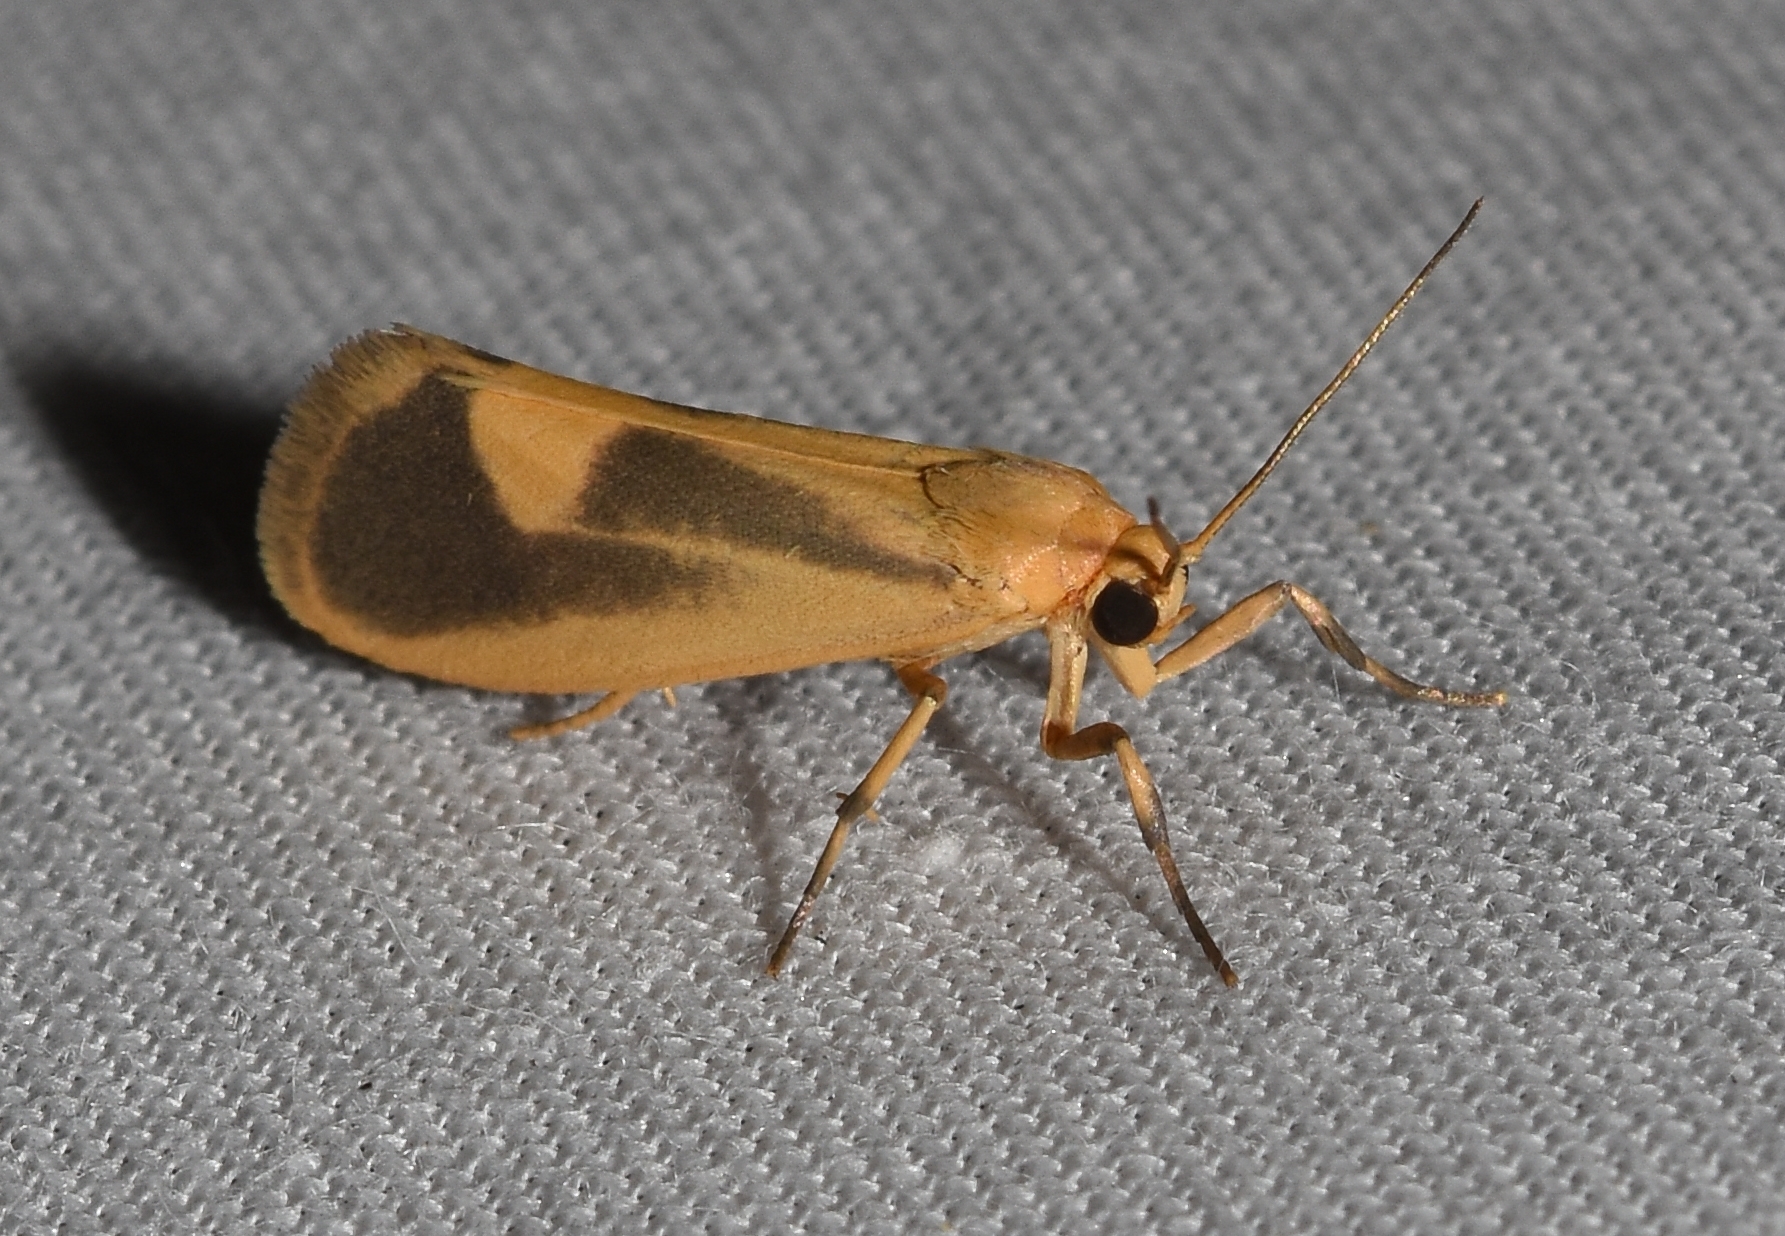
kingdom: Animalia
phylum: Arthropoda
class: Insecta
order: Lepidoptera
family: Erebidae
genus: Cisthene
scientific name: Cisthene plumbea
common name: Lead colored lichen moth
